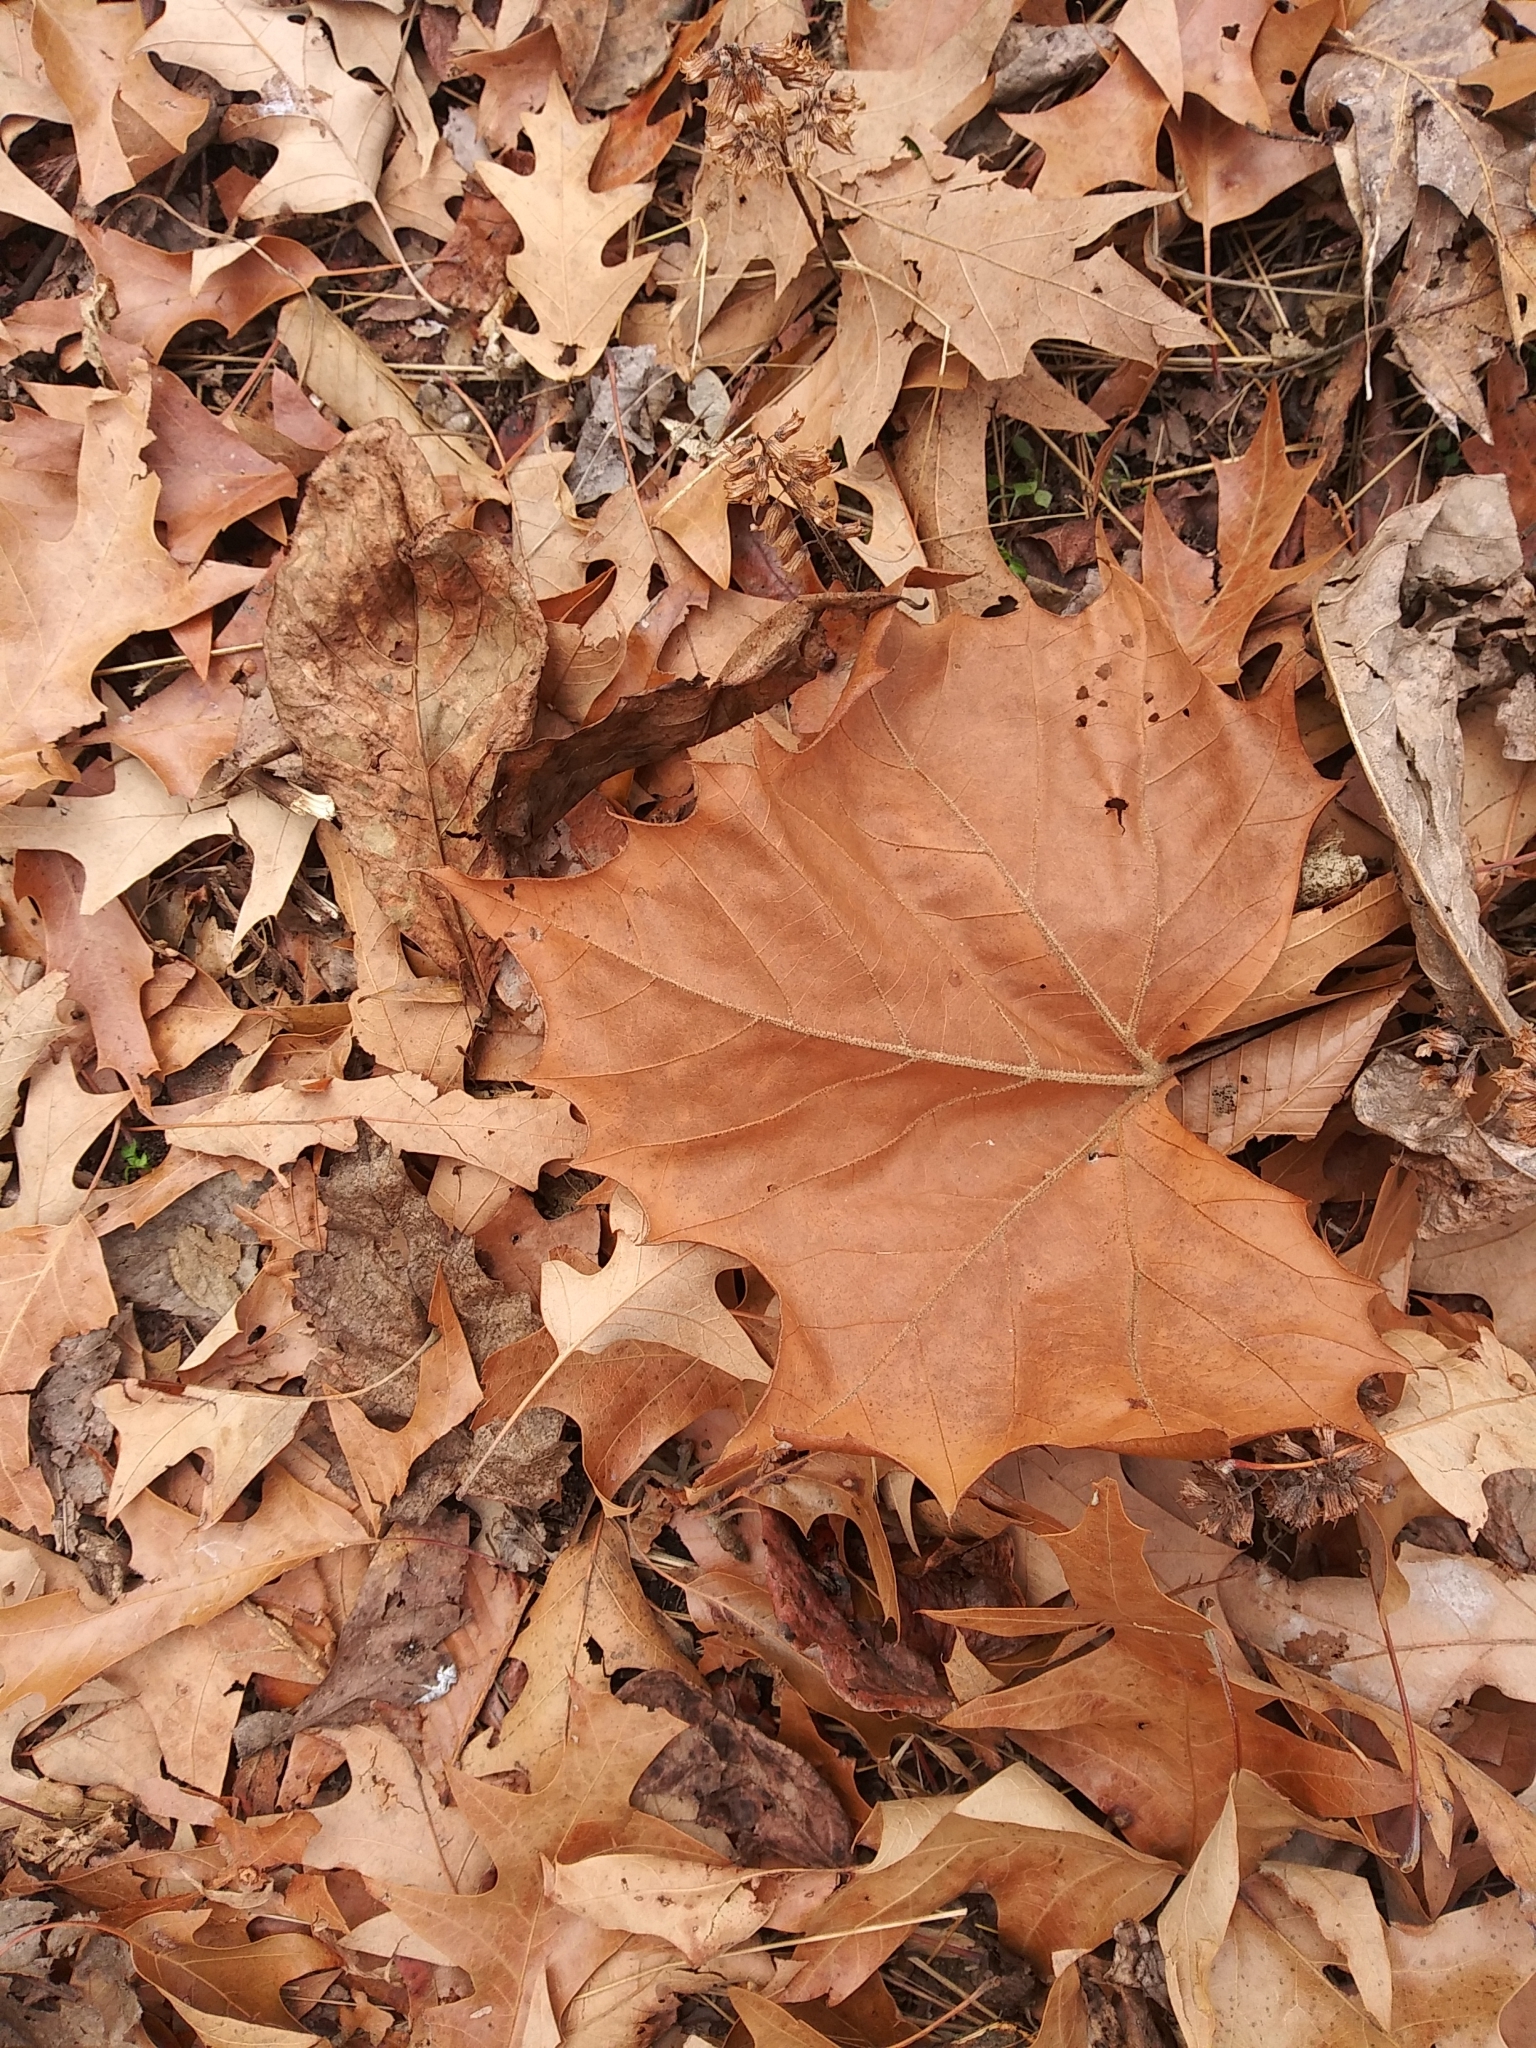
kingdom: Plantae
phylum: Tracheophyta
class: Magnoliopsida
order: Proteales
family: Platanaceae
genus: Platanus
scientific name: Platanus occidentalis
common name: American sycamore
